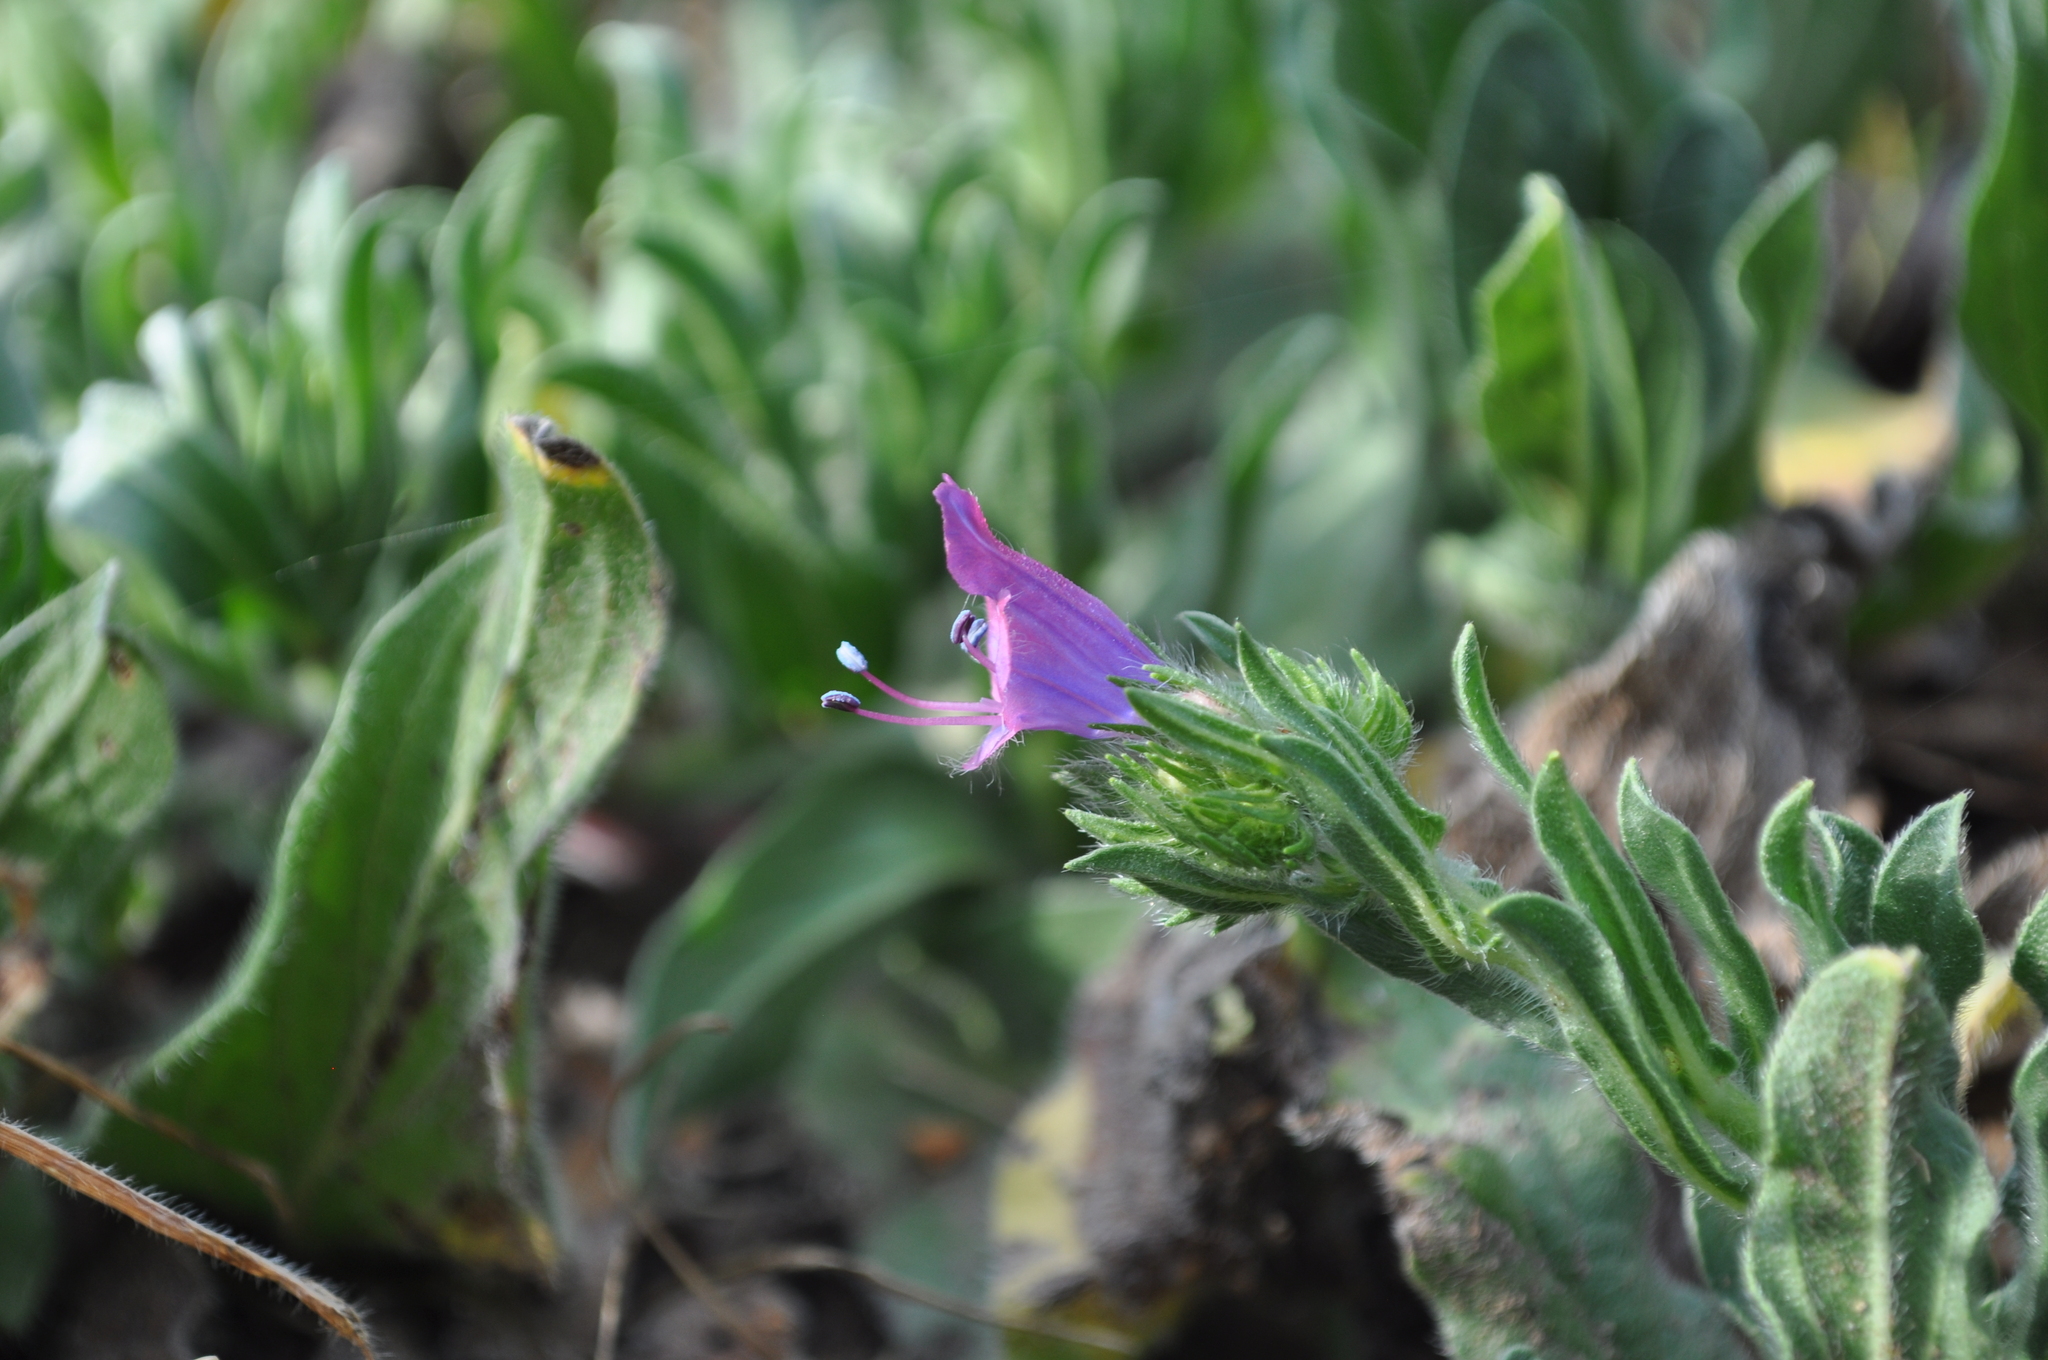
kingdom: Plantae
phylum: Tracheophyta
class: Magnoliopsida
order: Boraginales
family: Boraginaceae
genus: Echium
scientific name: Echium plantagineum
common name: Purple viper's-bugloss
